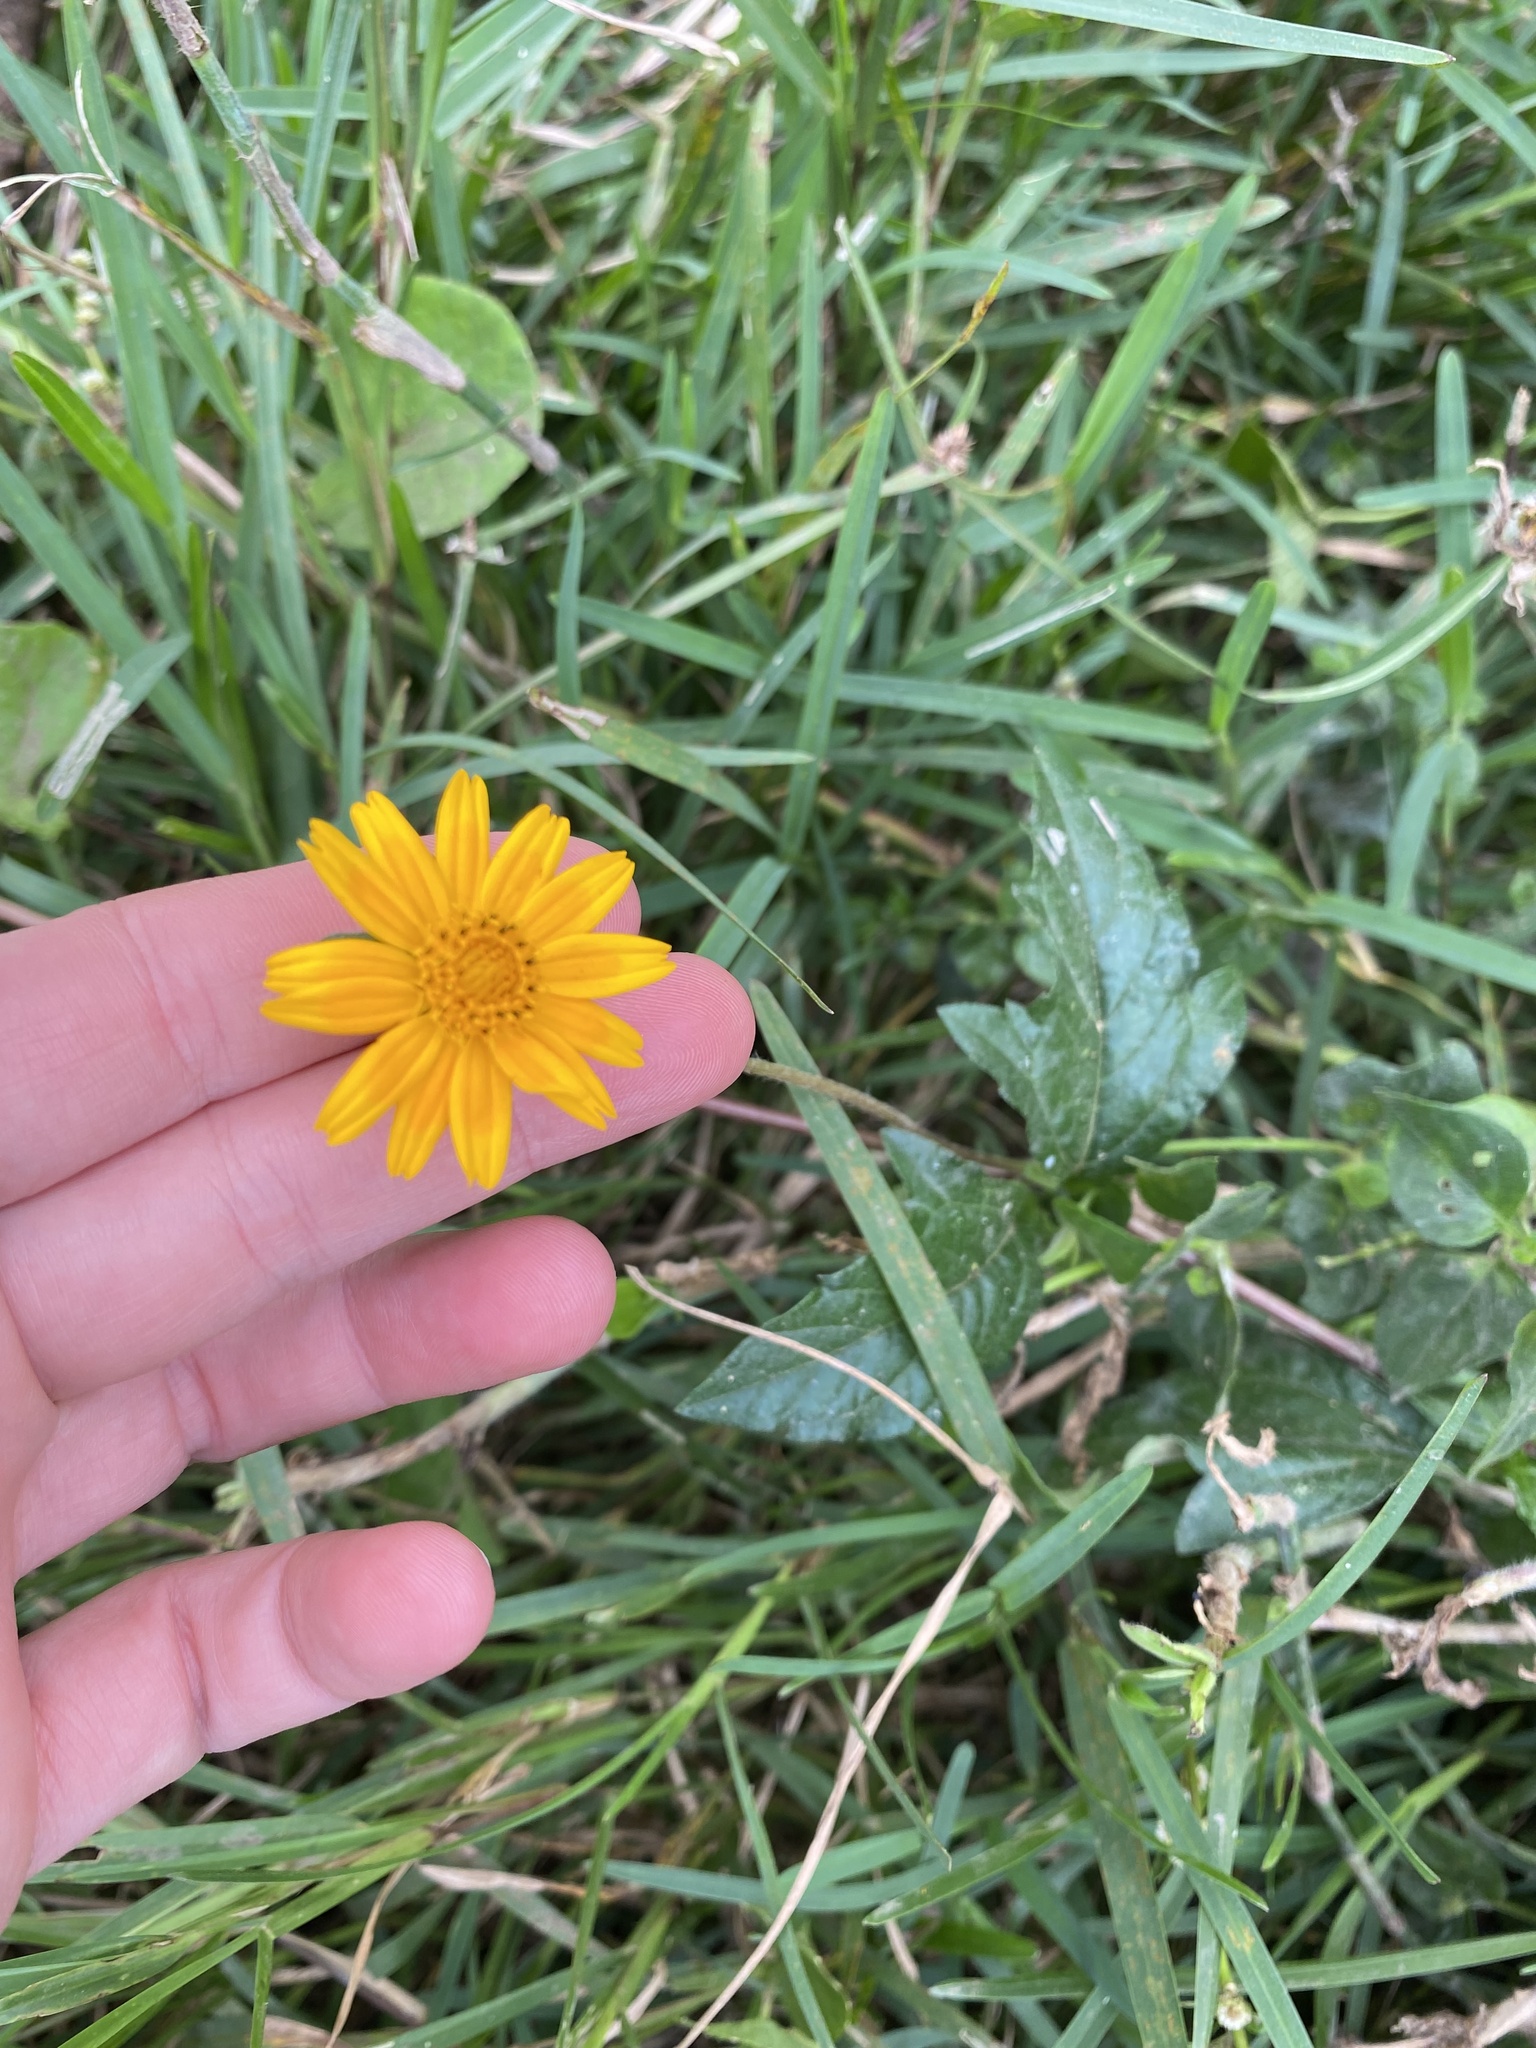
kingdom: Plantae
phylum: Tracheophyta
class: Magnoliopsida
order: Asterales
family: Asteraceae
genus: Sphagneticola
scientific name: Sphagneticola trilobata
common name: Bay biscayne creeping-oxeye
